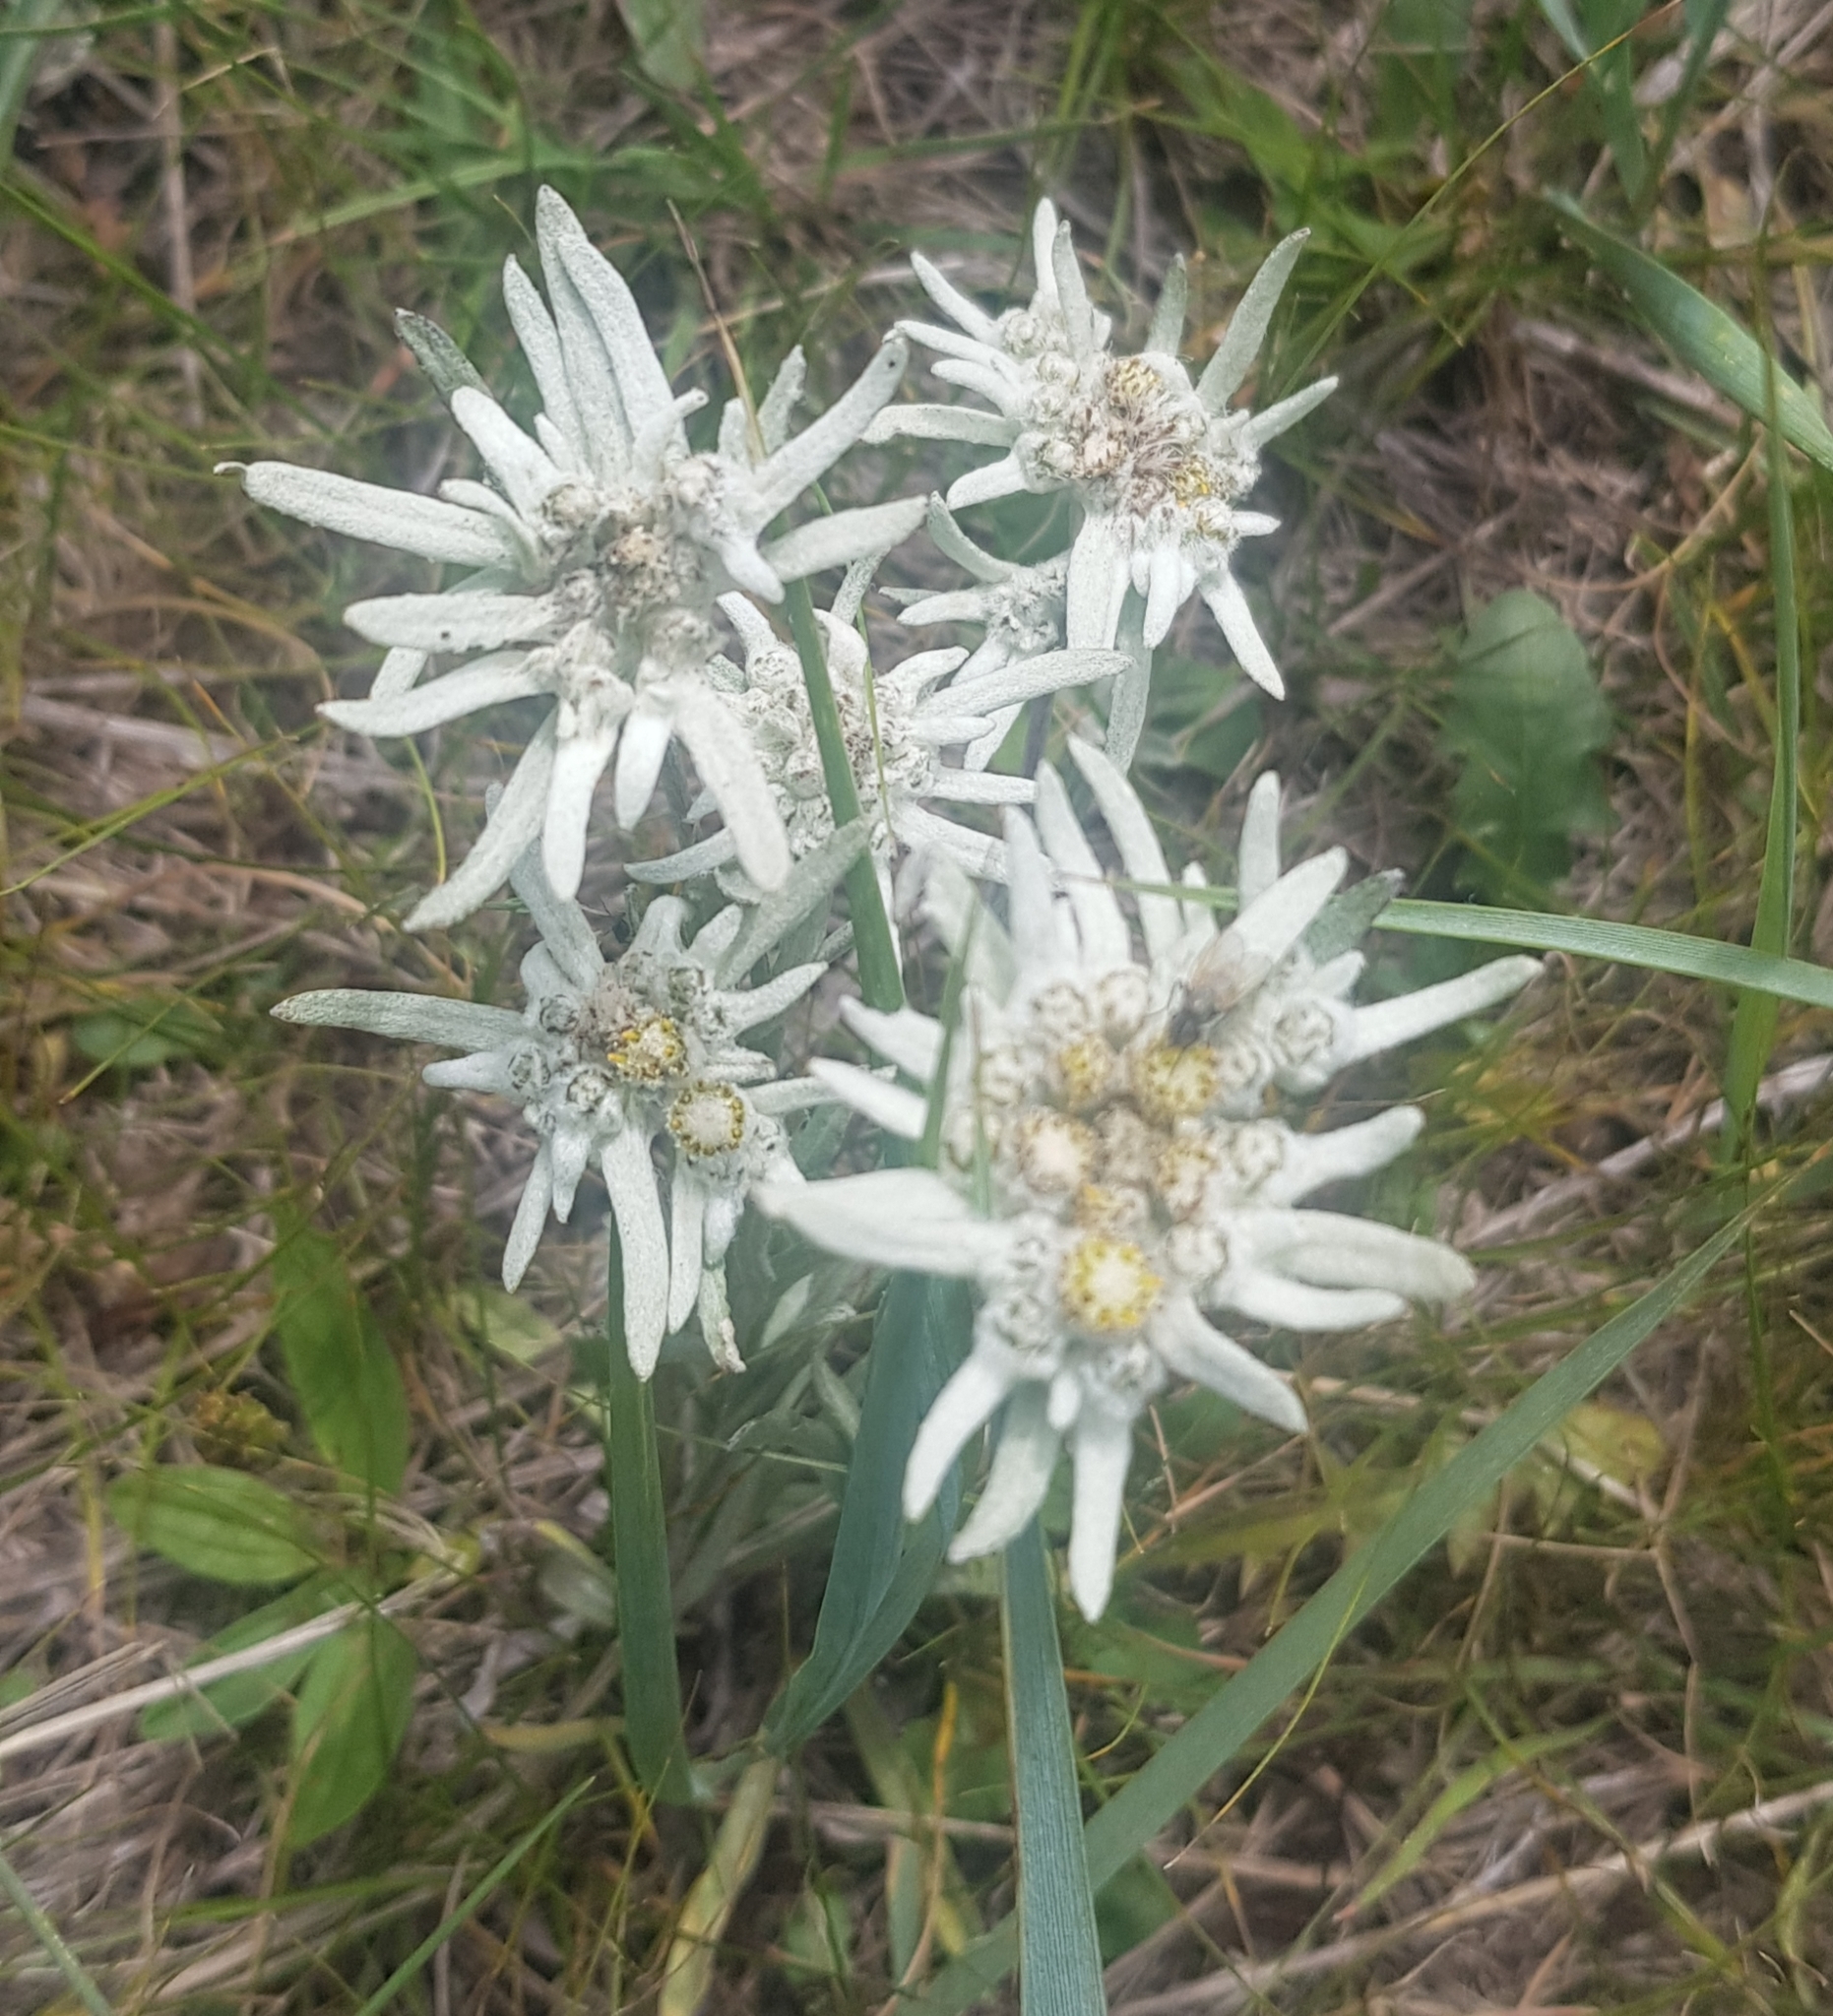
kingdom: Plantae
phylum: Tracheophyta
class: Magnoliopsida
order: Asterales
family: Asteraceae
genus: Leontopodium
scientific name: Leontopodium leontopodioides
